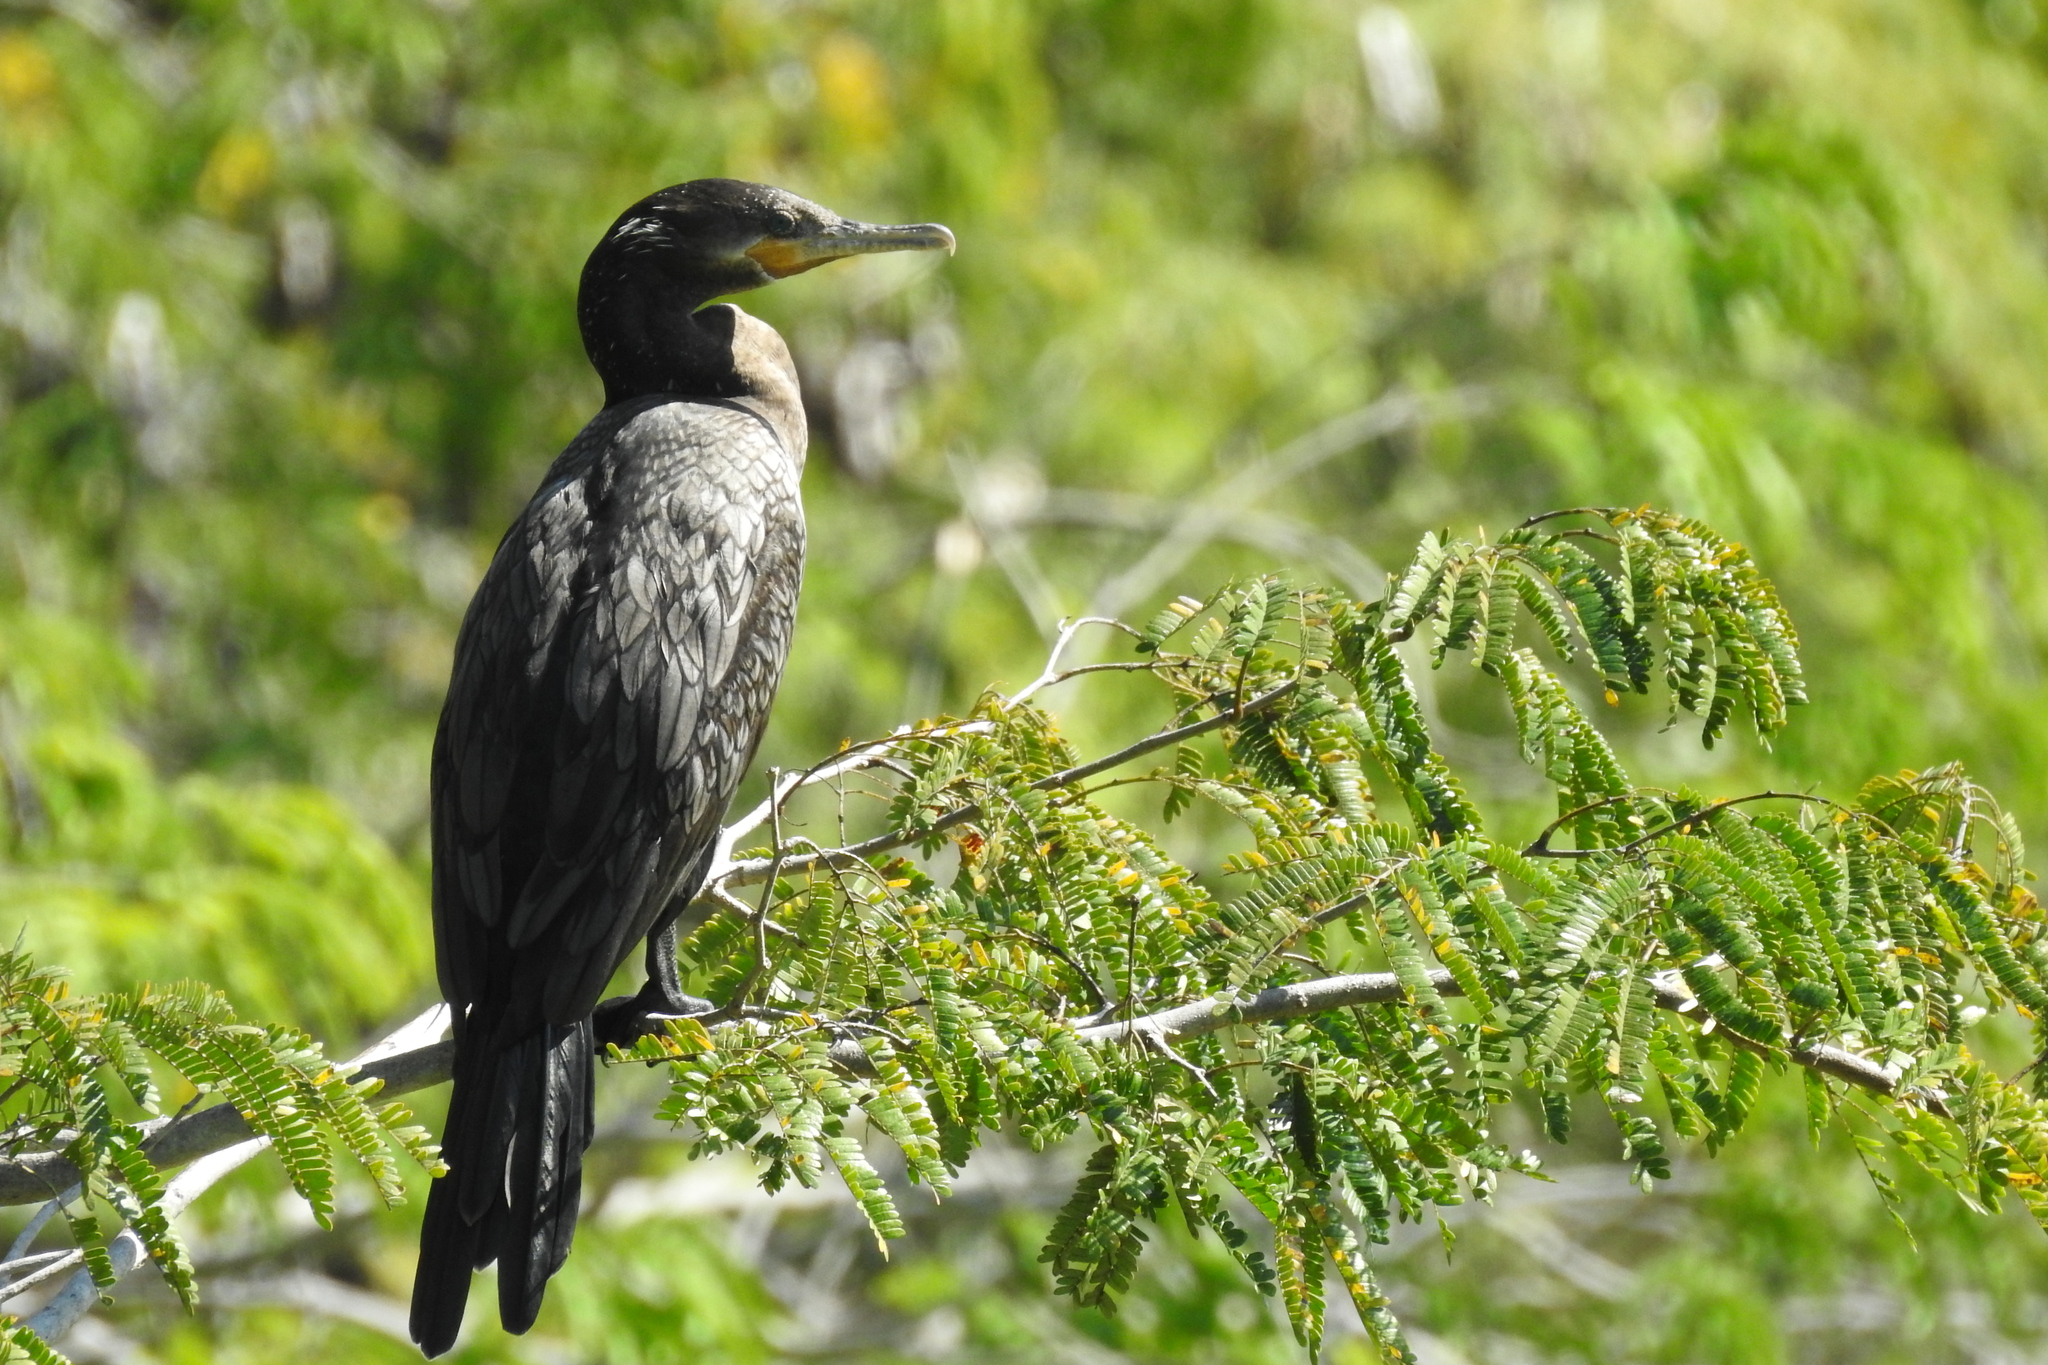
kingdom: Animalia
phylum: Chordata
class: Aves
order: Suliformes
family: Phalacrocoracidae
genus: Phalacrocorax
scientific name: Phalacrocorax brasilianus
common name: Neotropic cormorant
